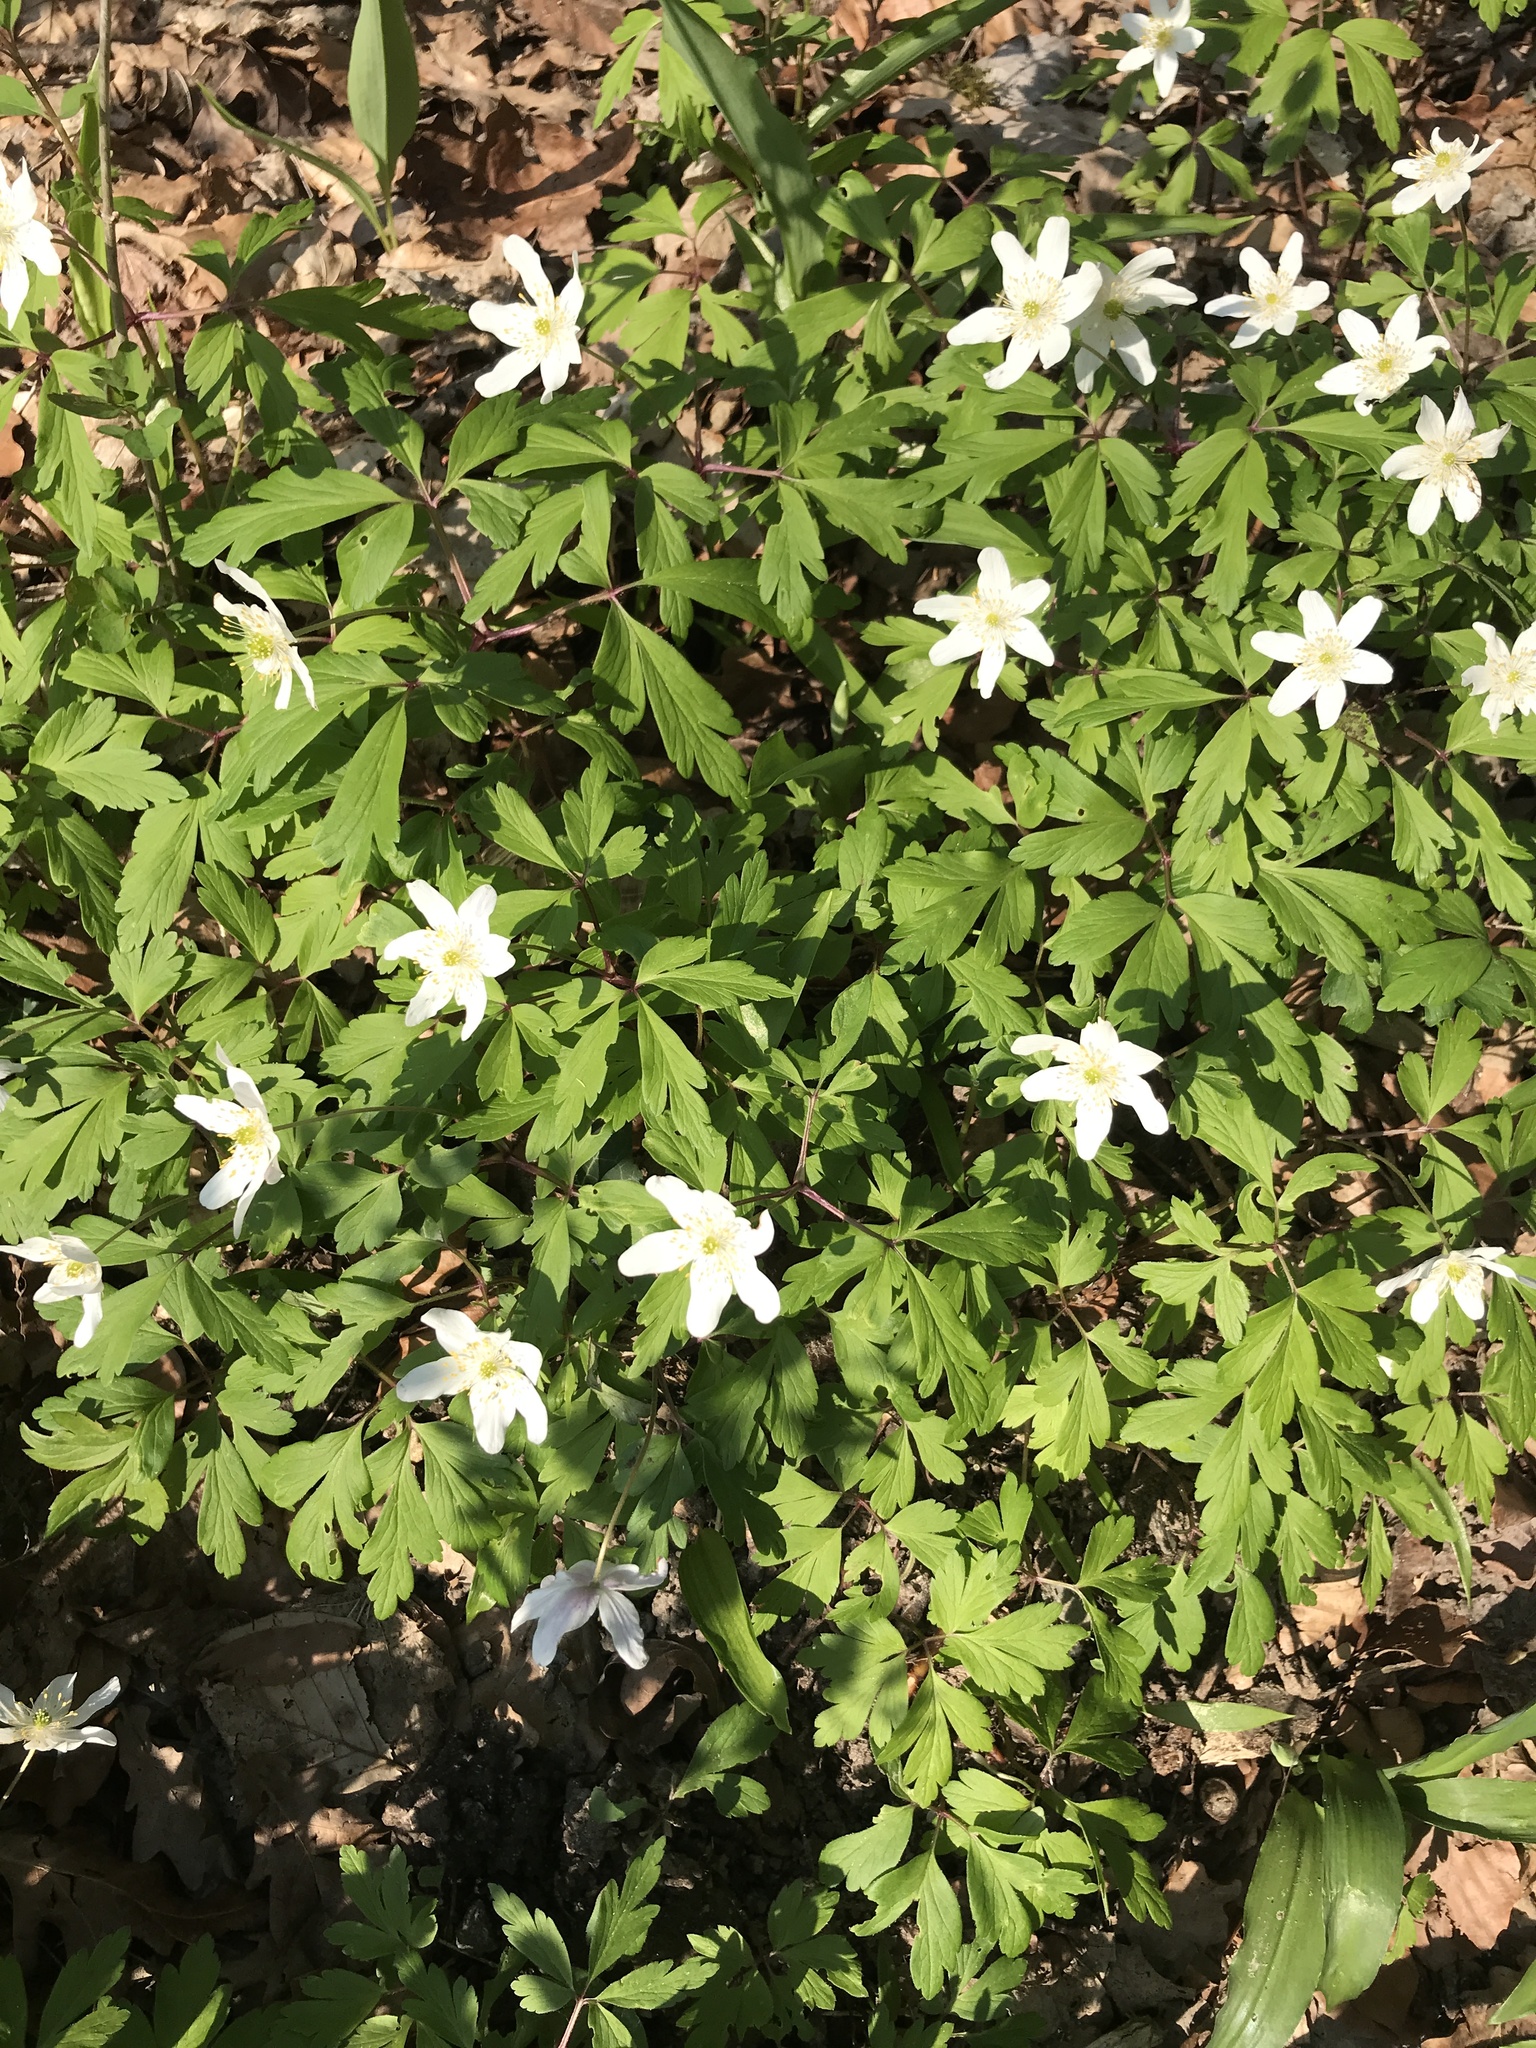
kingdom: Plantae
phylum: Tracheophyta
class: Magnoliopsida
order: Ranunculales
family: Ranunculaceae
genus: Anemone
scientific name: Anemone nemorosa
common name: Wood anemone
